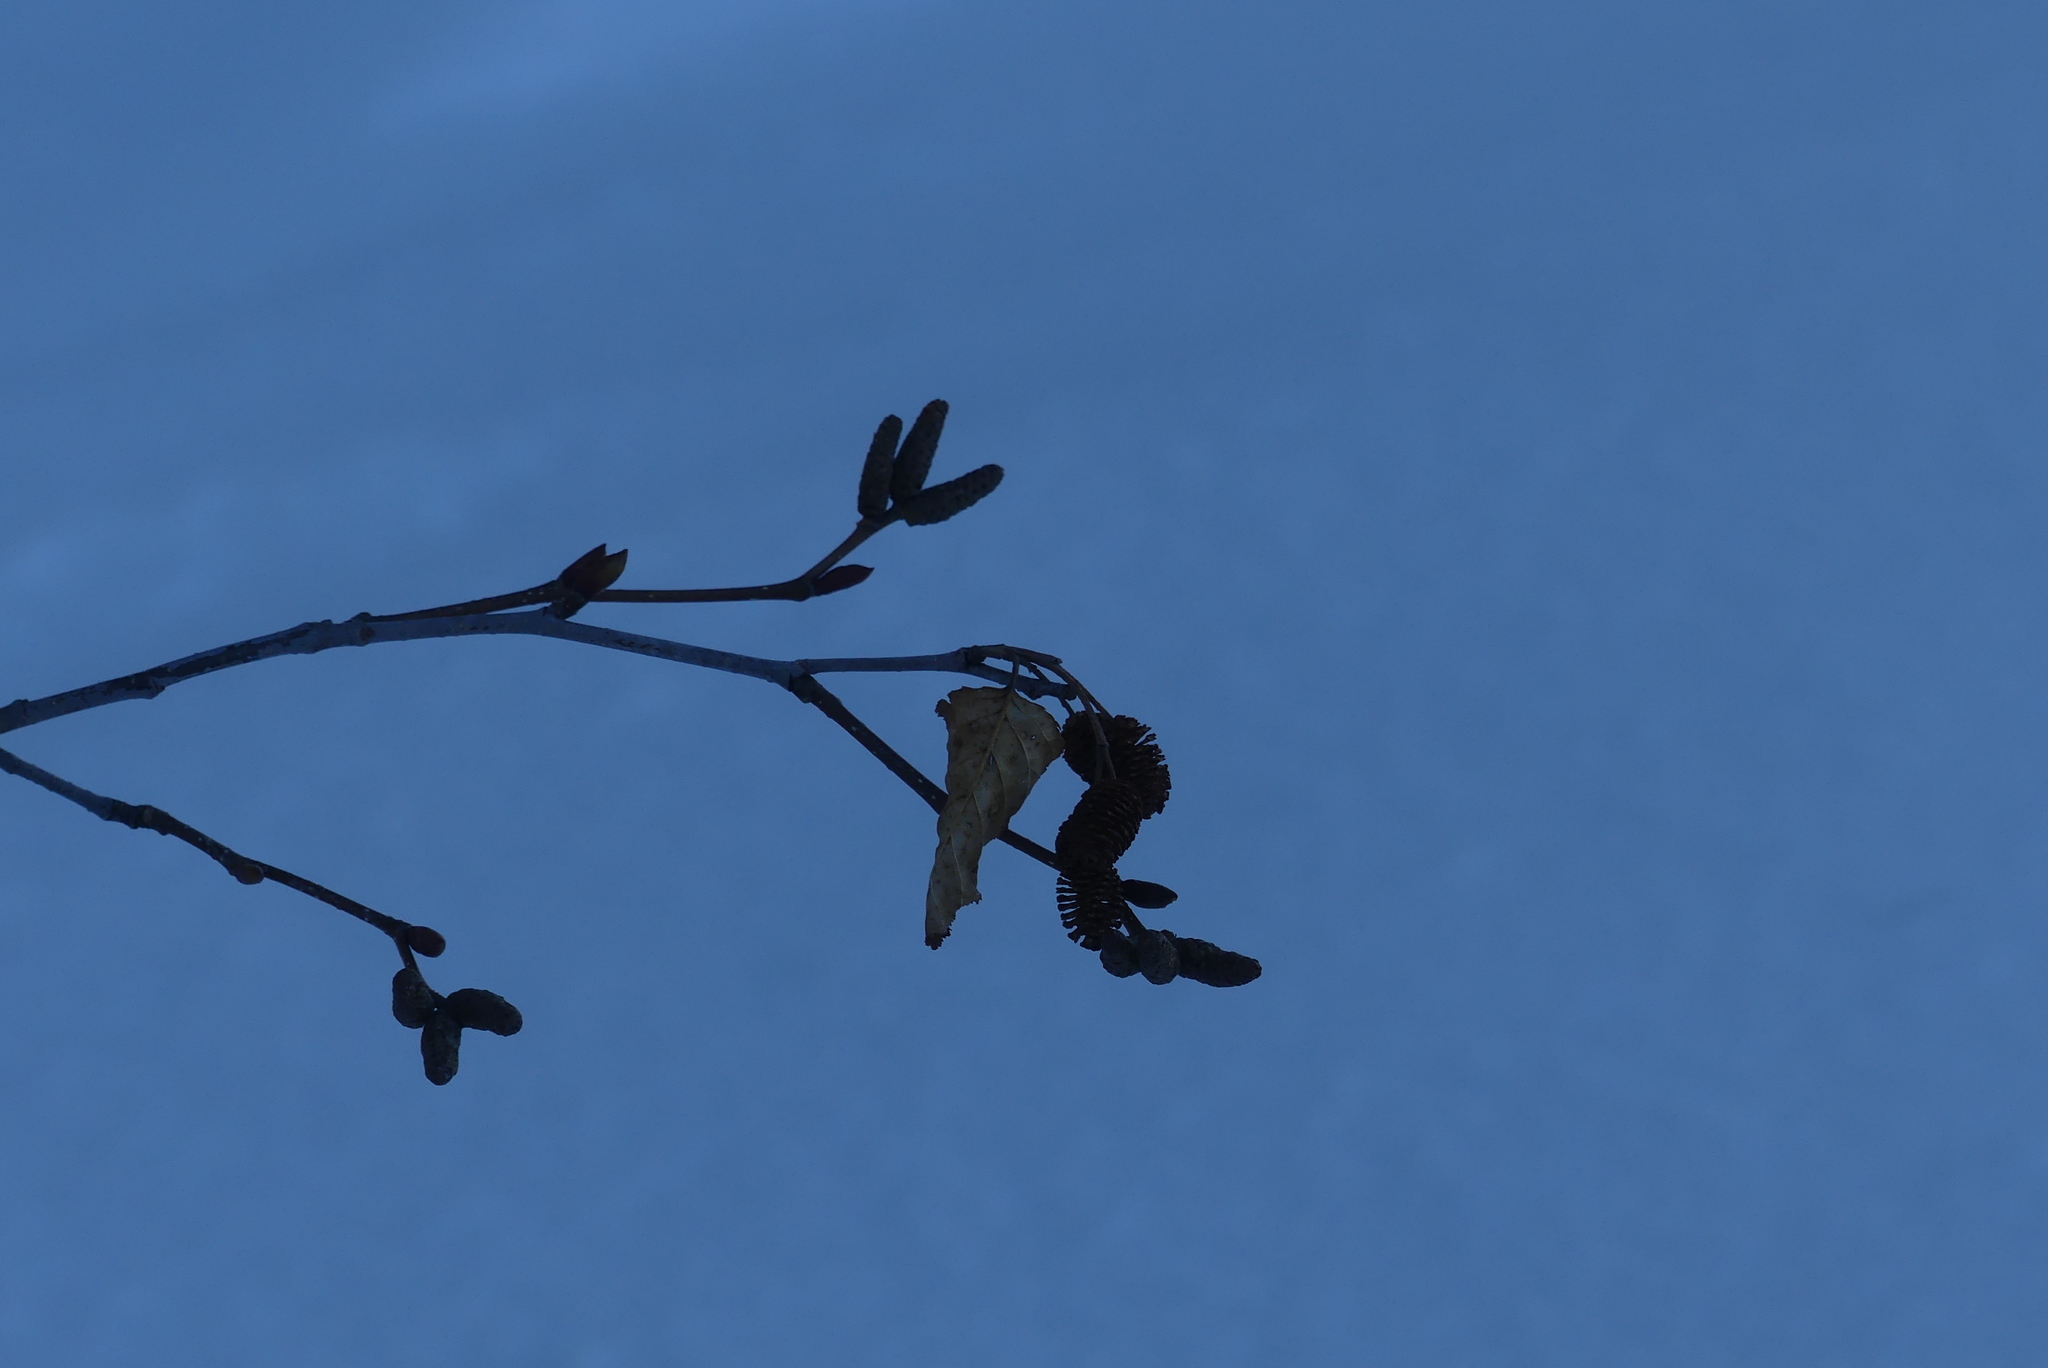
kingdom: Plantae
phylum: Tracheophyta
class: Magnoliopsida
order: Fagales
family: Betulaceae
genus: Alnus
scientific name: Alnus rubra
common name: Red alder
